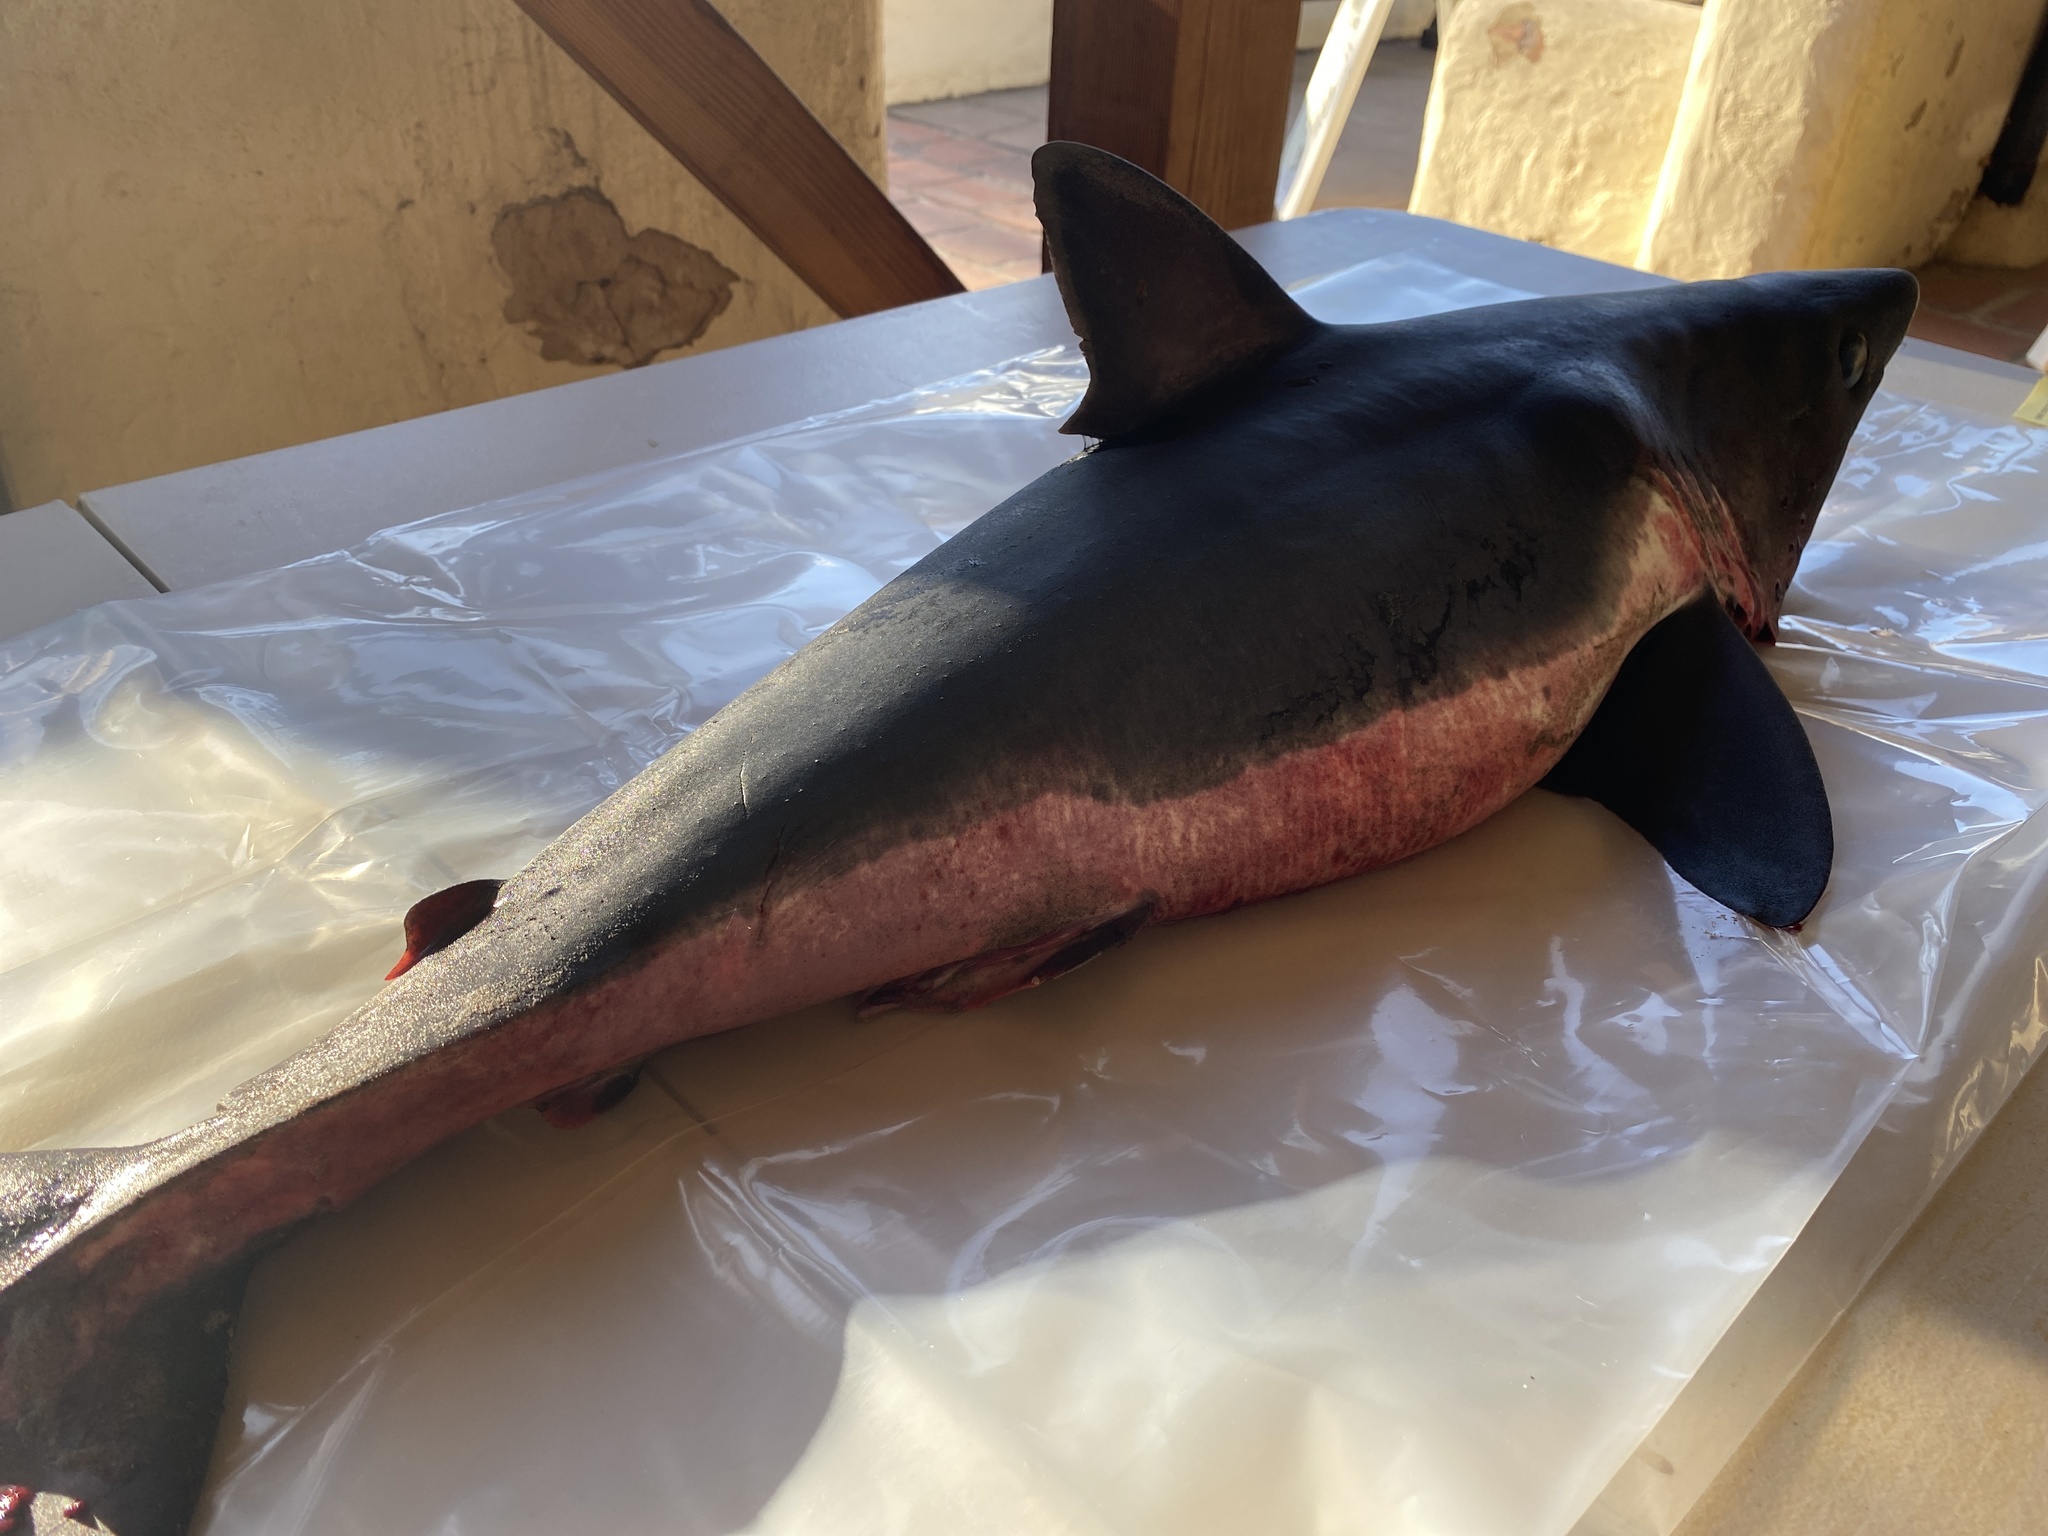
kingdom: Animalia
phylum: Chordata
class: Elasmobranchii
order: Lamniformes
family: Lamnidae
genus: Lamna
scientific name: Lamna ditropis
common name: Salmon shark
